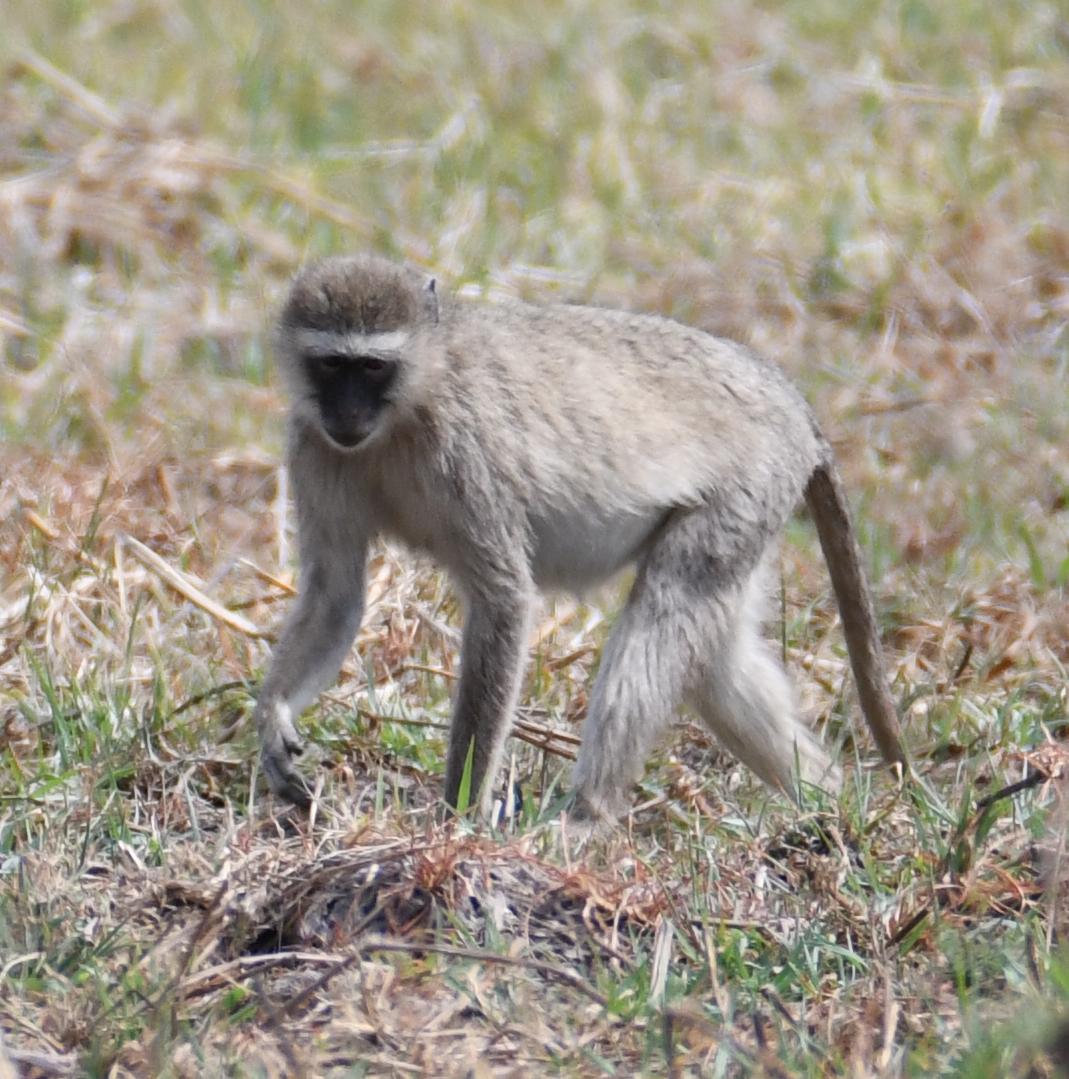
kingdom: Animalia
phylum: Chordata
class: Mammalia
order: Primates
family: Cercopithecidae
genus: Chlorocebus
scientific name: Chlorocebus pygerythrus
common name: Vervet monkey
